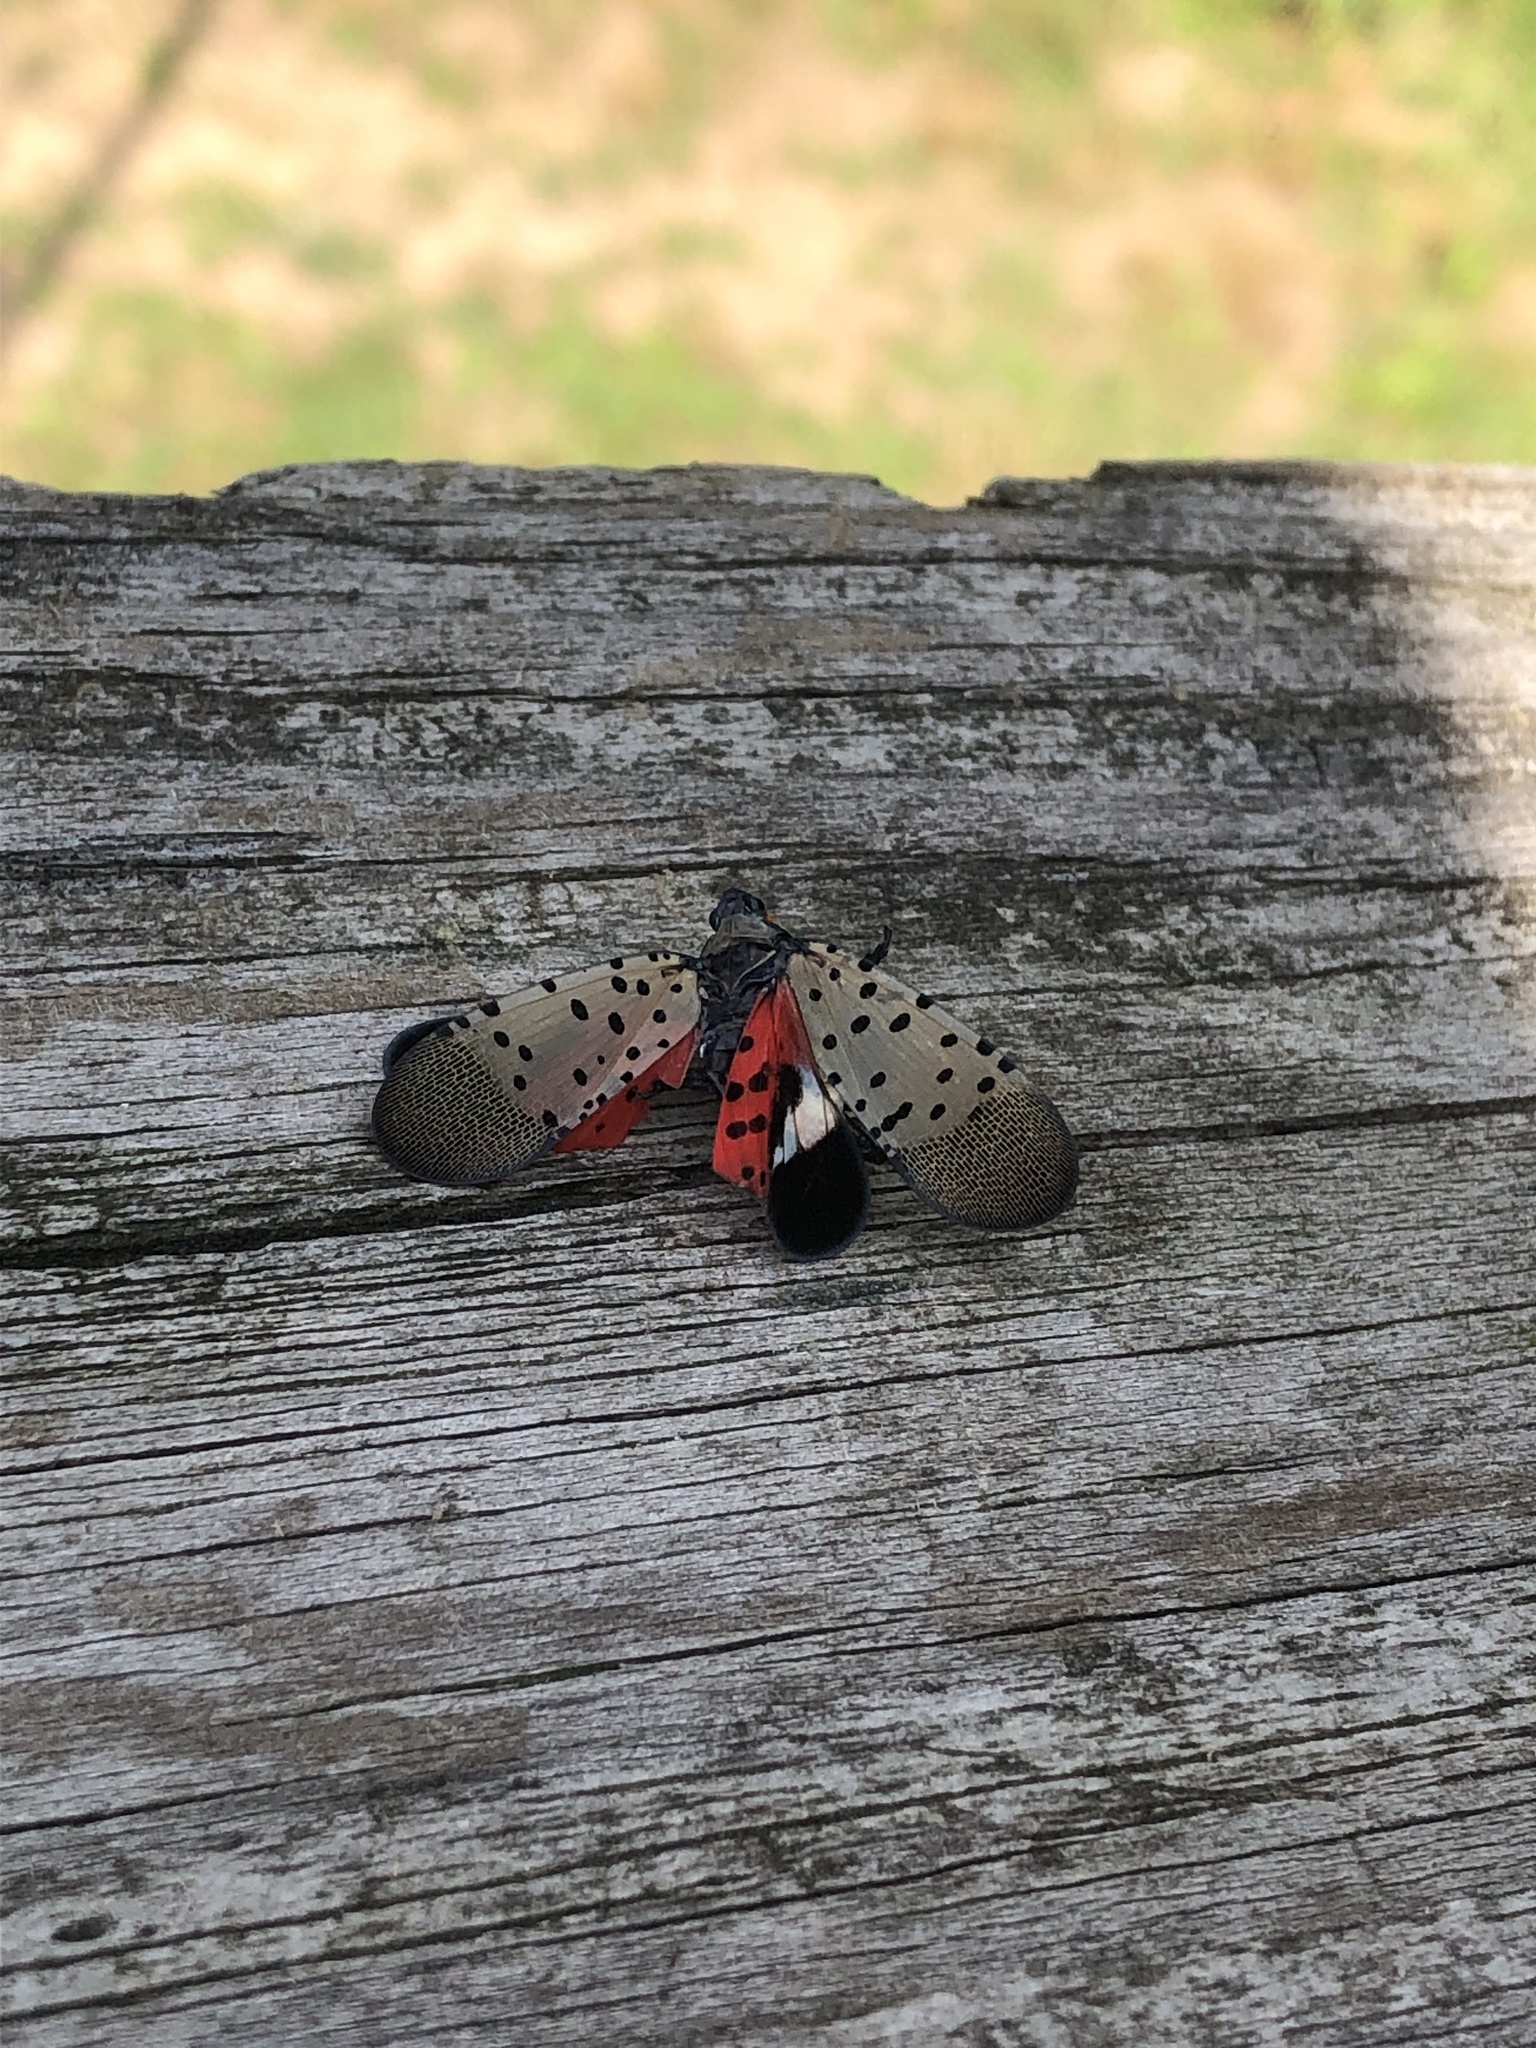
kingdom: Animalia
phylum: Arthropoda
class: Insecta
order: Hemiptera
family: Fulgoridae
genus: Lycorma
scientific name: Lycorma delicatula
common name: Spotted lanternfly
